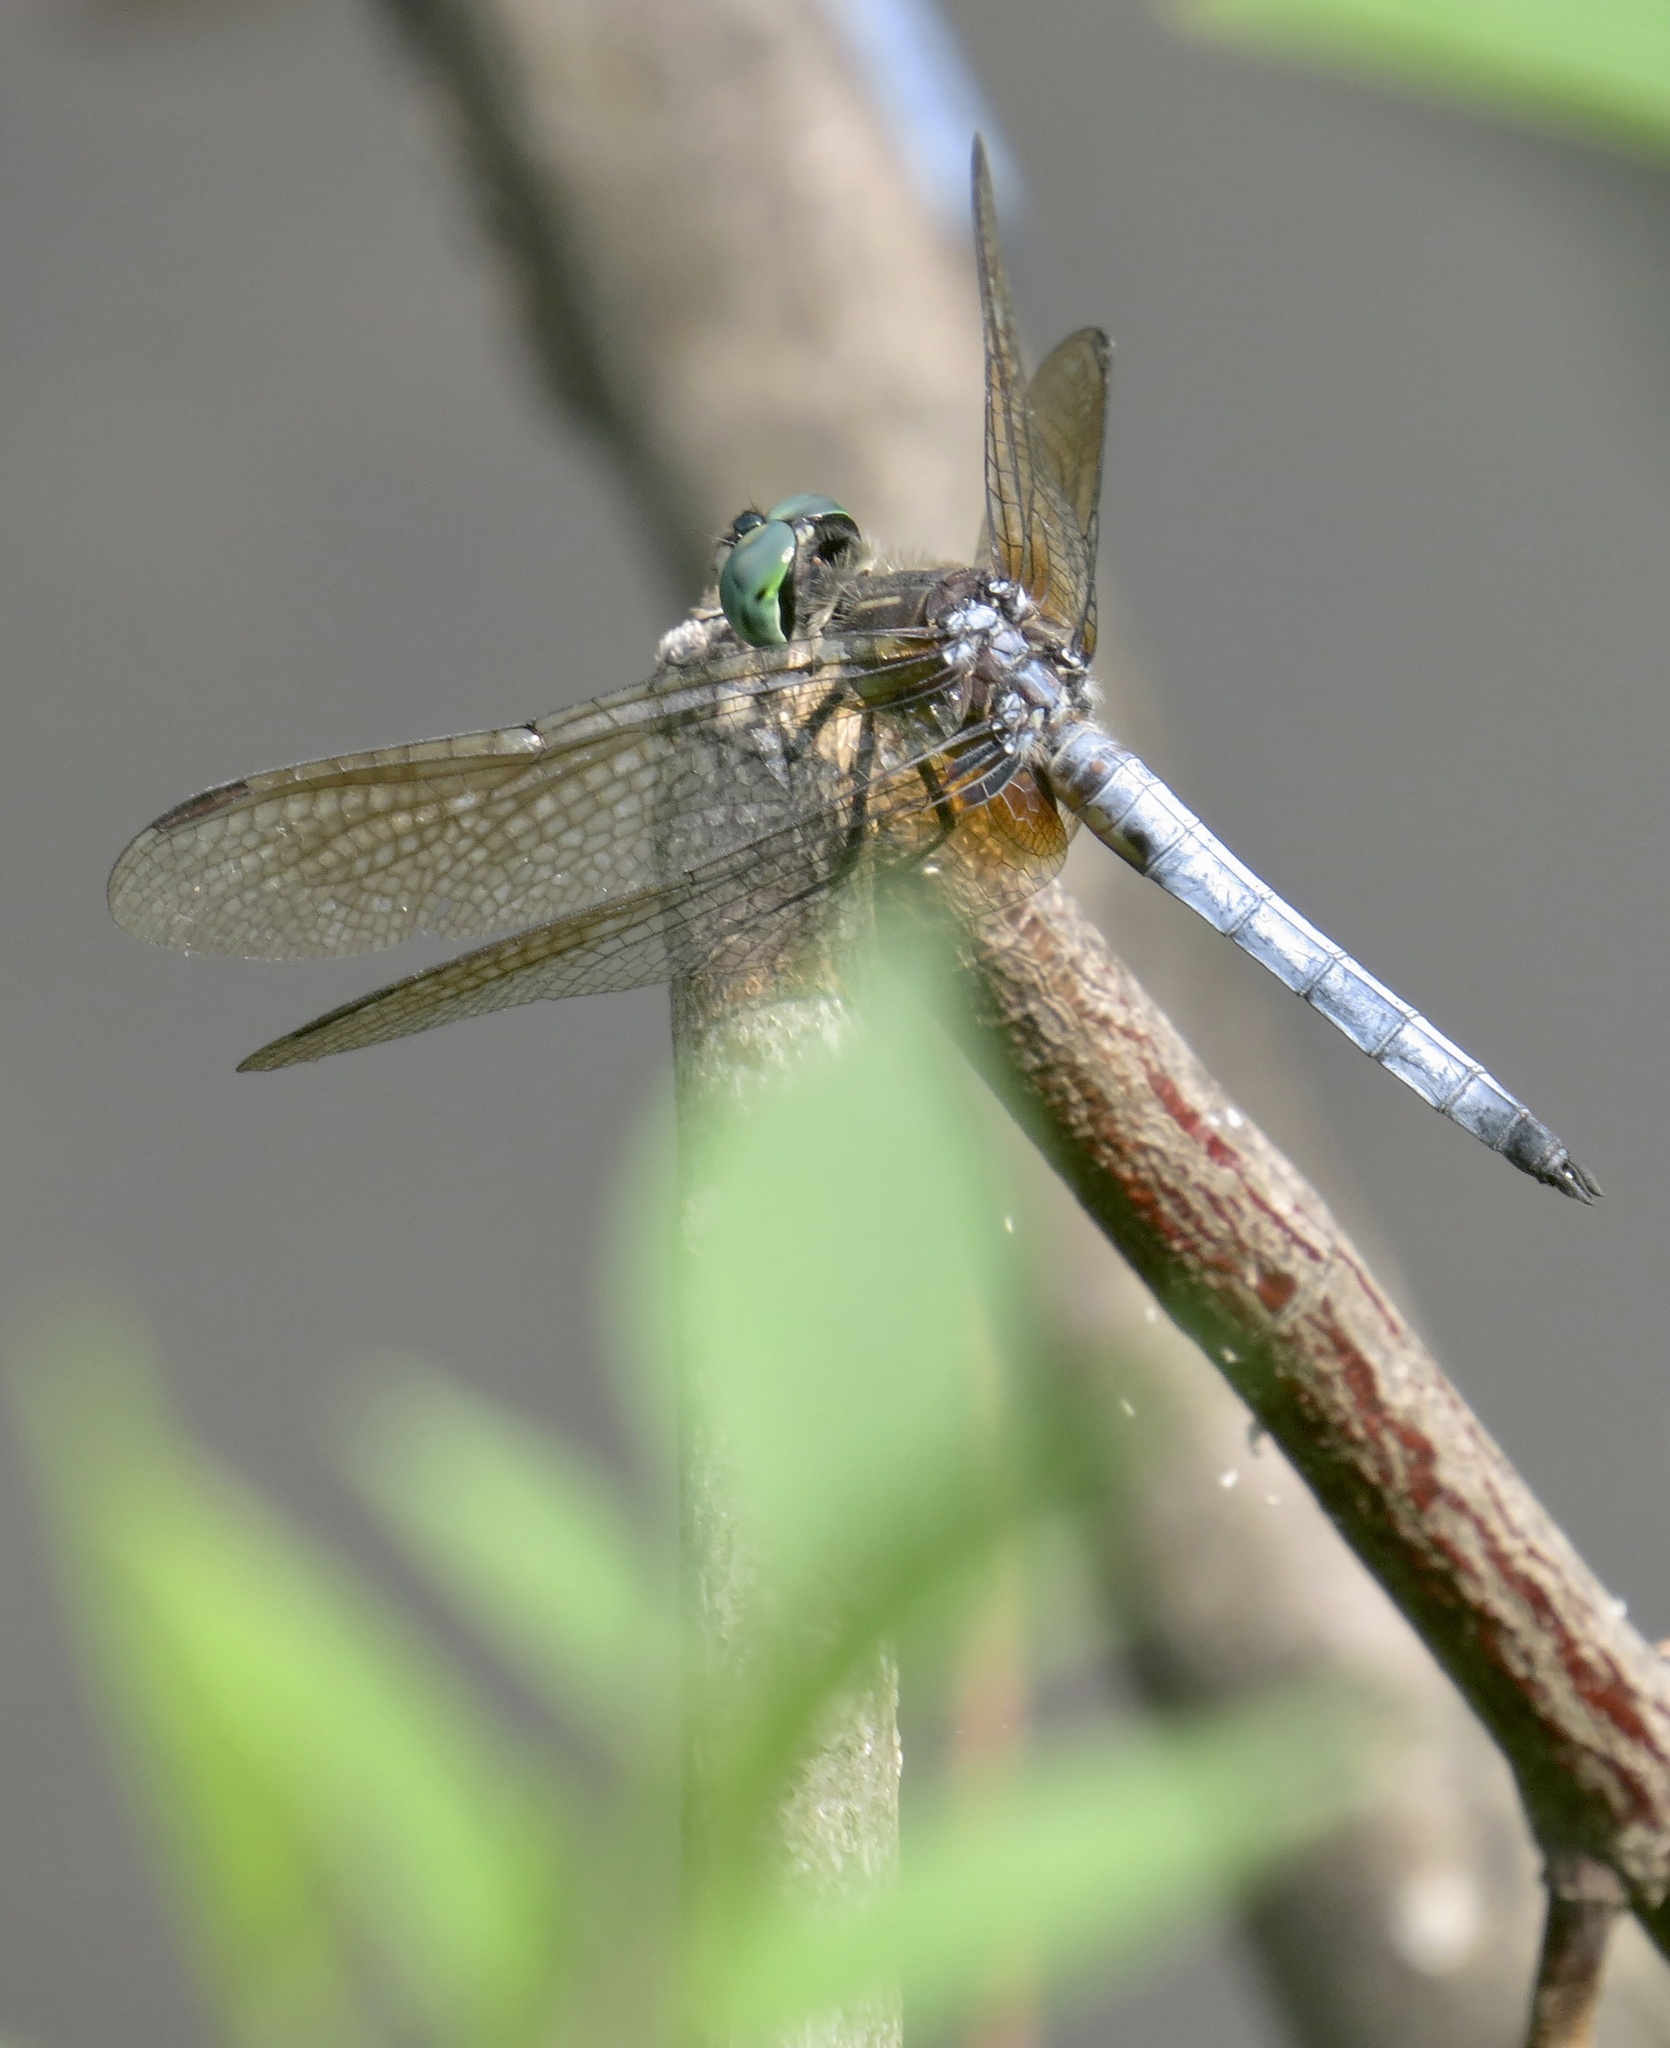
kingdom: Animalia
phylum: Arthropoda
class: Insecta
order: Odonata
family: Libellulidae
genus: Pachydiplax
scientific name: Pachydiplax longipennis
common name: Blue dasher
